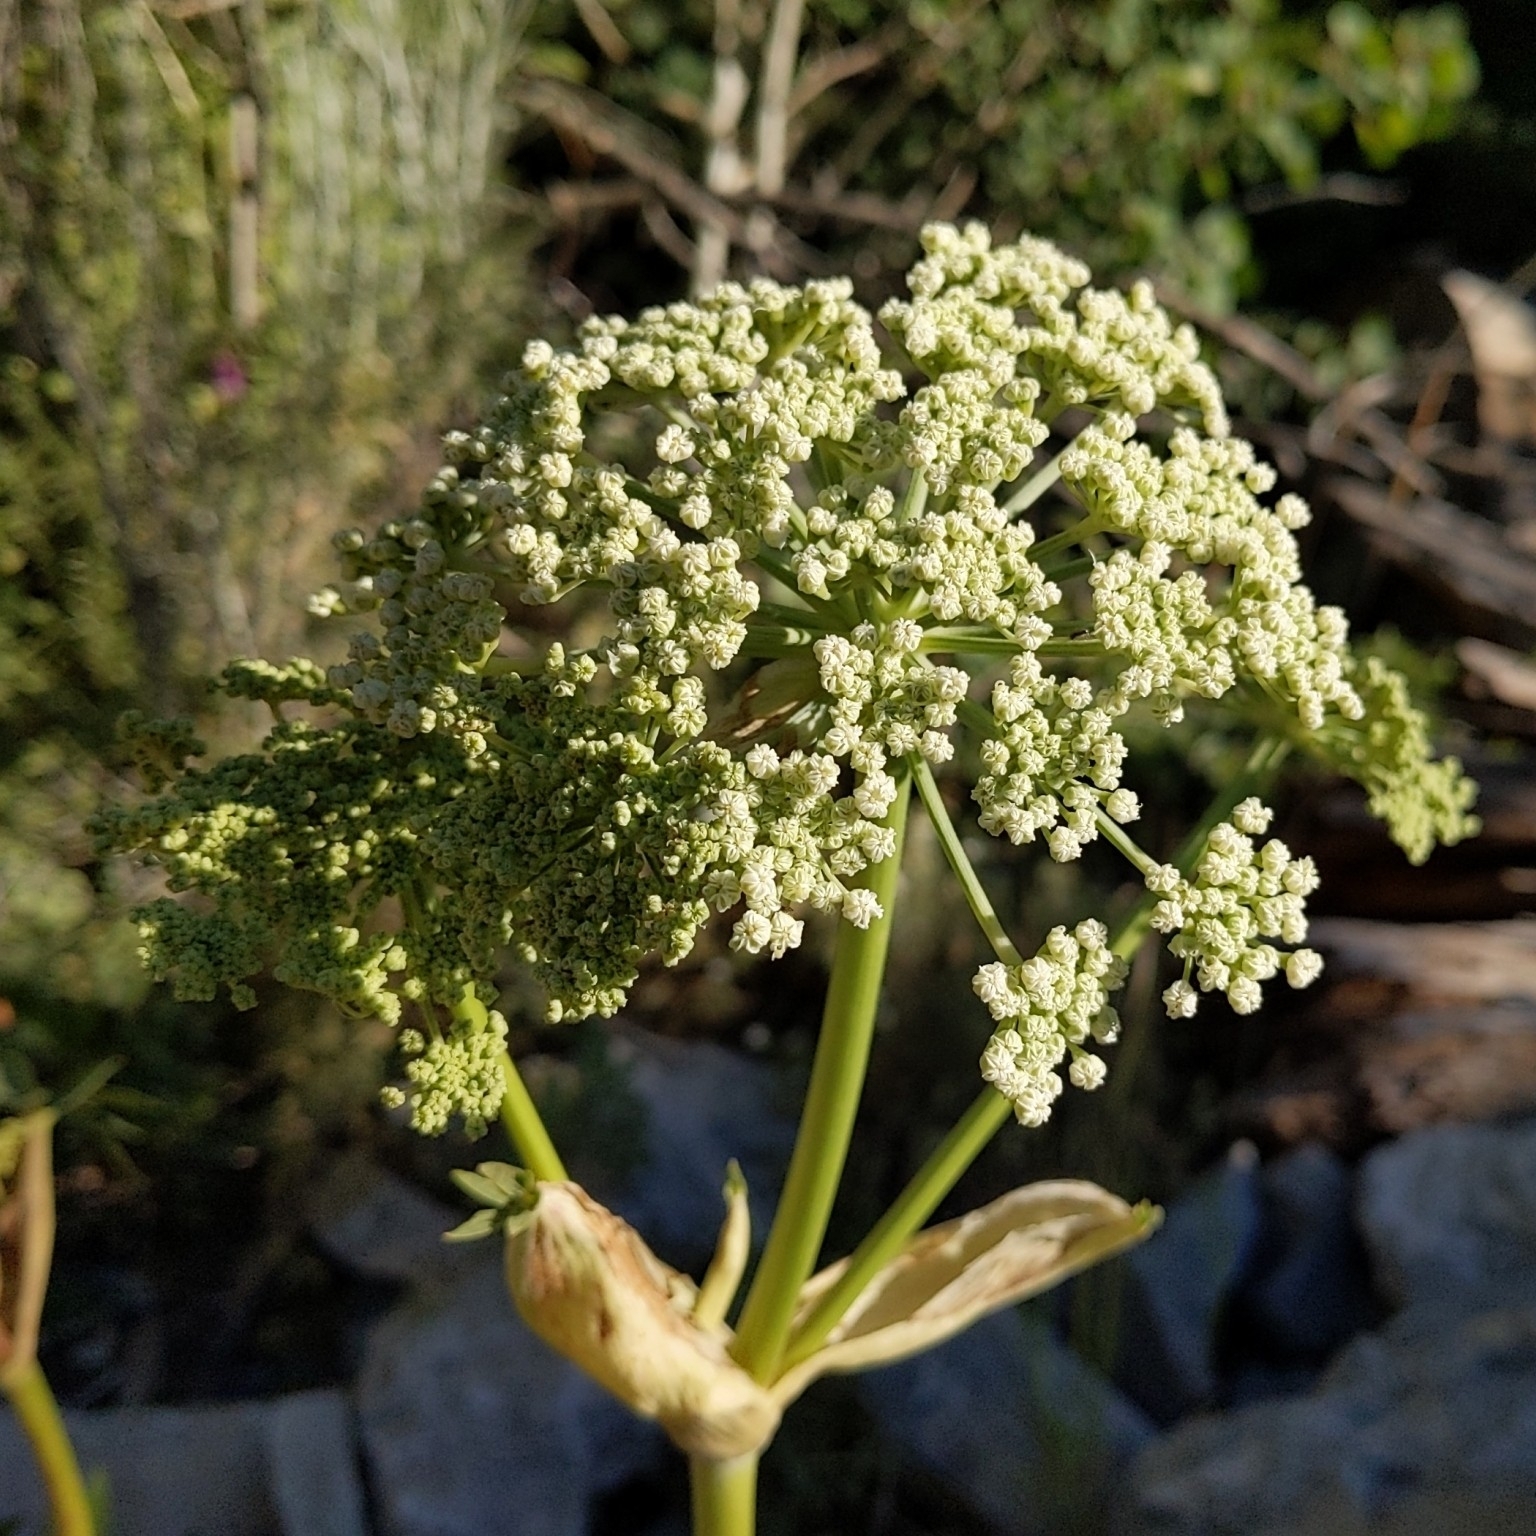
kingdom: Plantae
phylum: Tracheophyta
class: Magnoliopsida
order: Apiales
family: Apiaceae
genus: Angelica
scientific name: Angelica lineariloba
